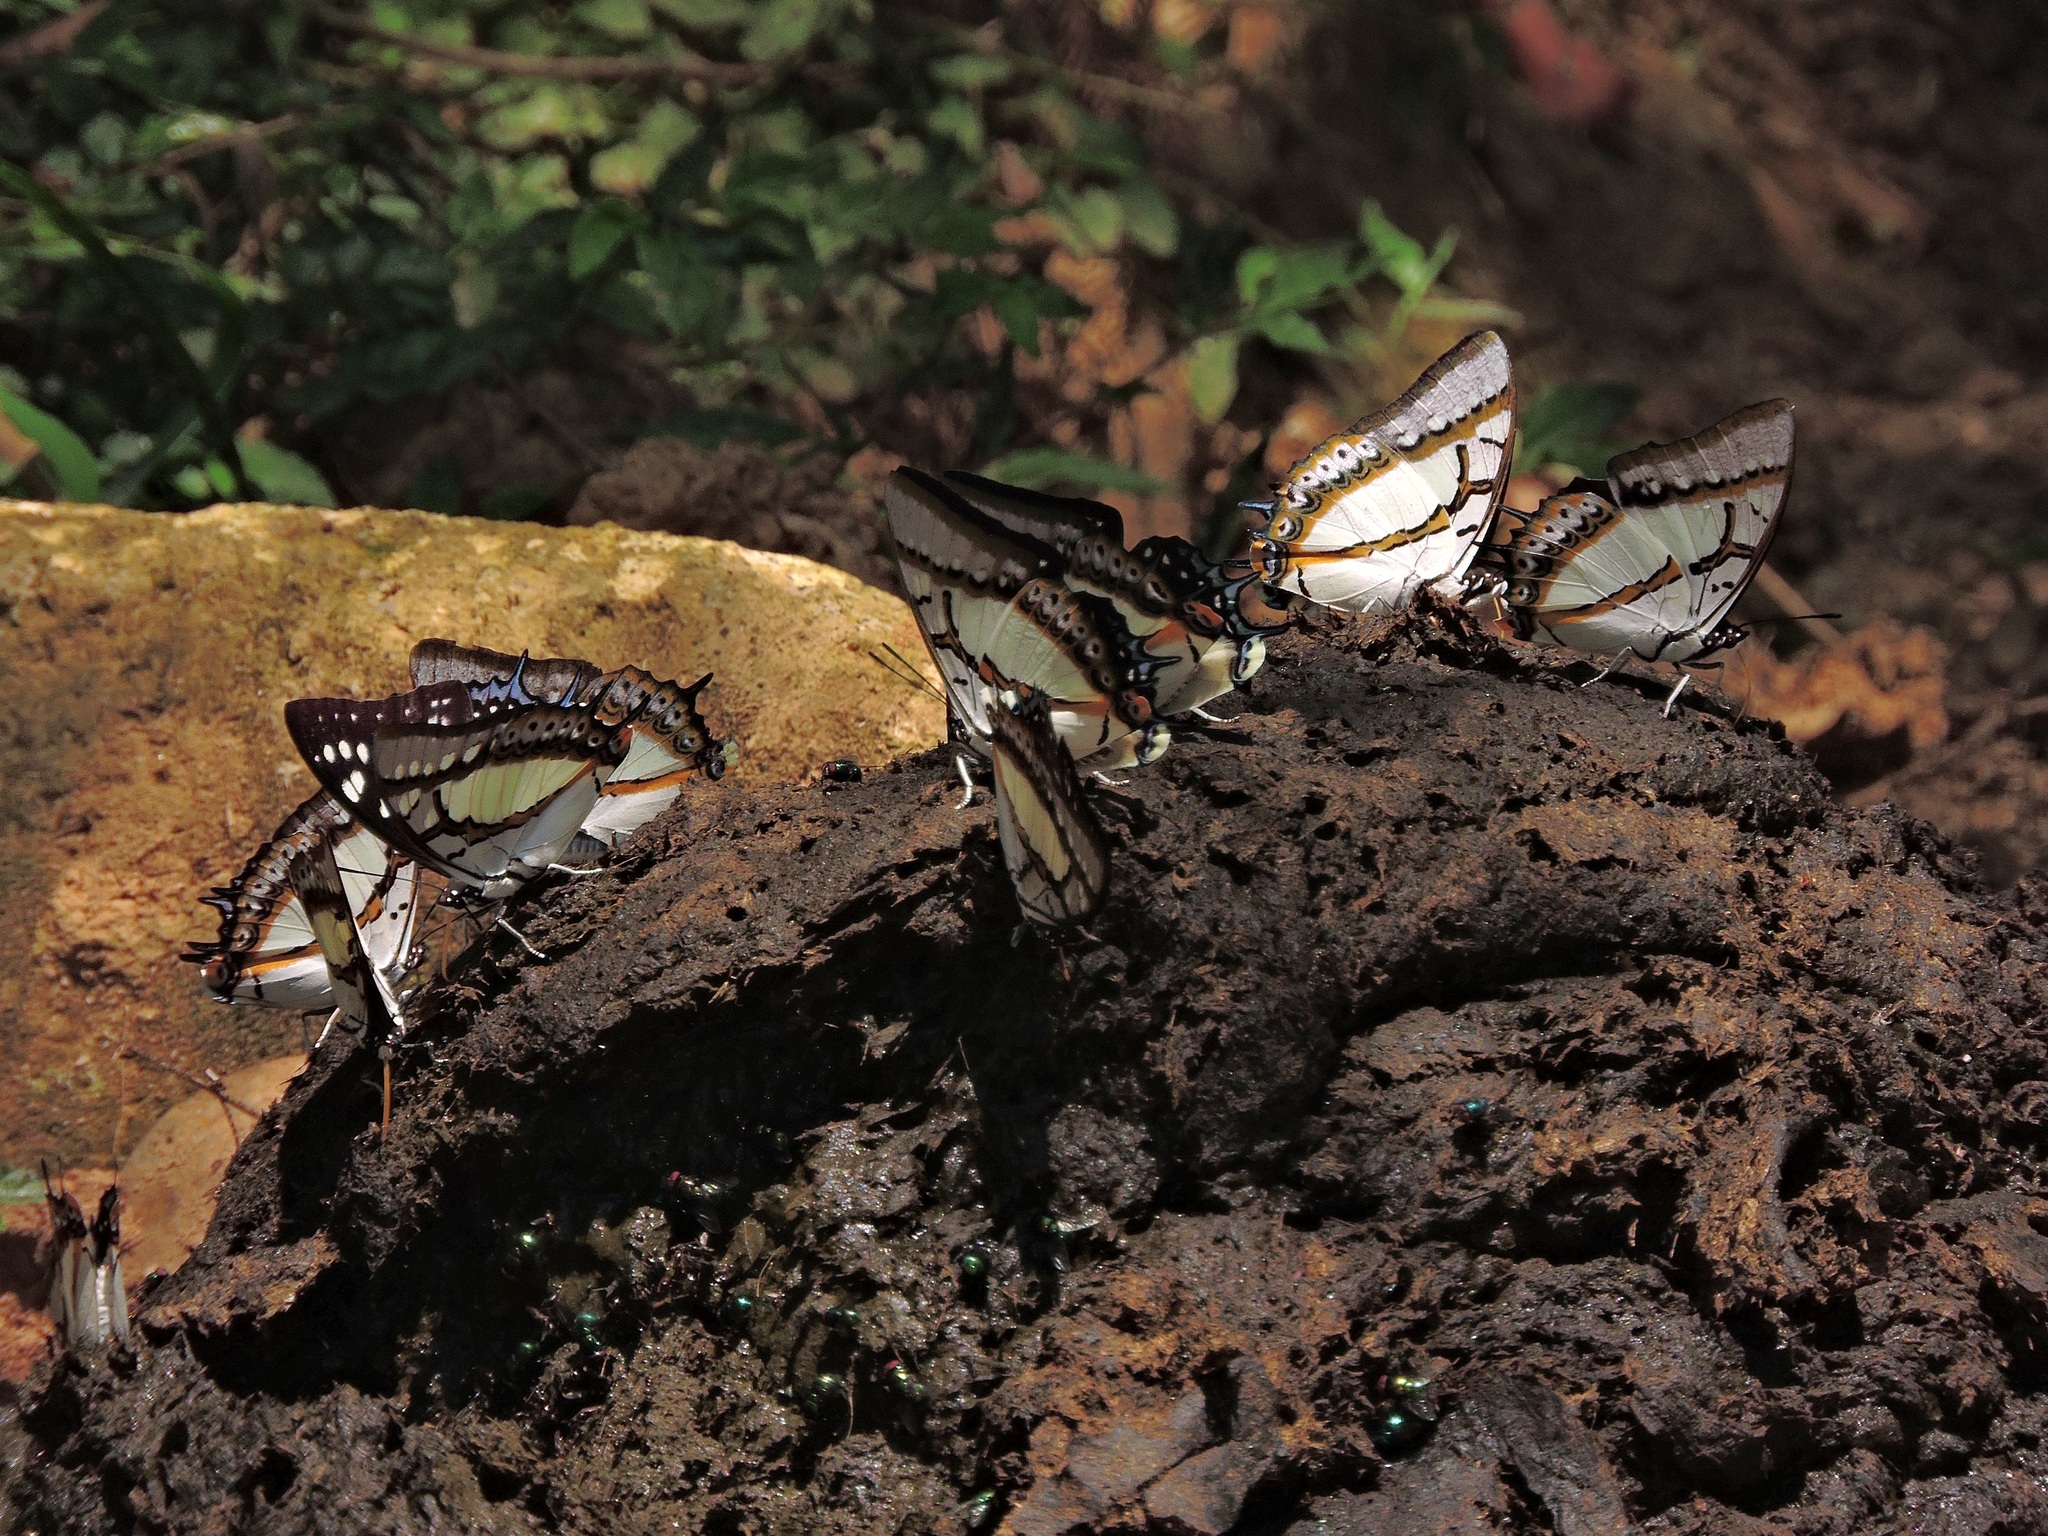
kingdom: Animalia
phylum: Arthropoda
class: Insecta
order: Lepidoptera
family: Nymphalidae
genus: Polyura
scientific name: Polyura eudamippus
